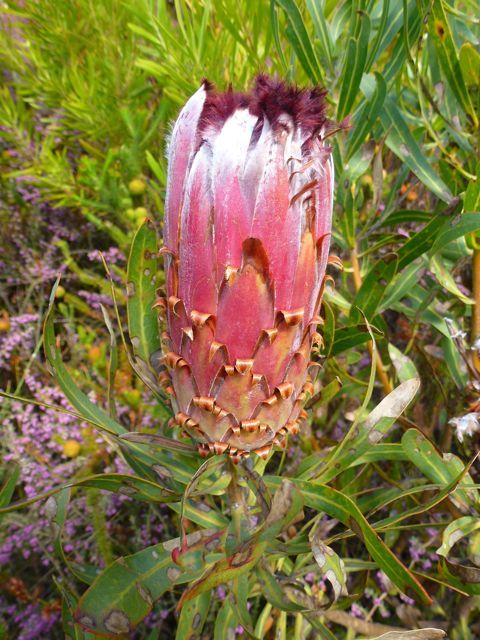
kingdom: Plantae
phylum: Tracheophyta
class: Magnoliopsida
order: Proteales
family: Proteaceae
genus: Protea
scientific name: Protea neriifolia
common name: Blue sugarbush
